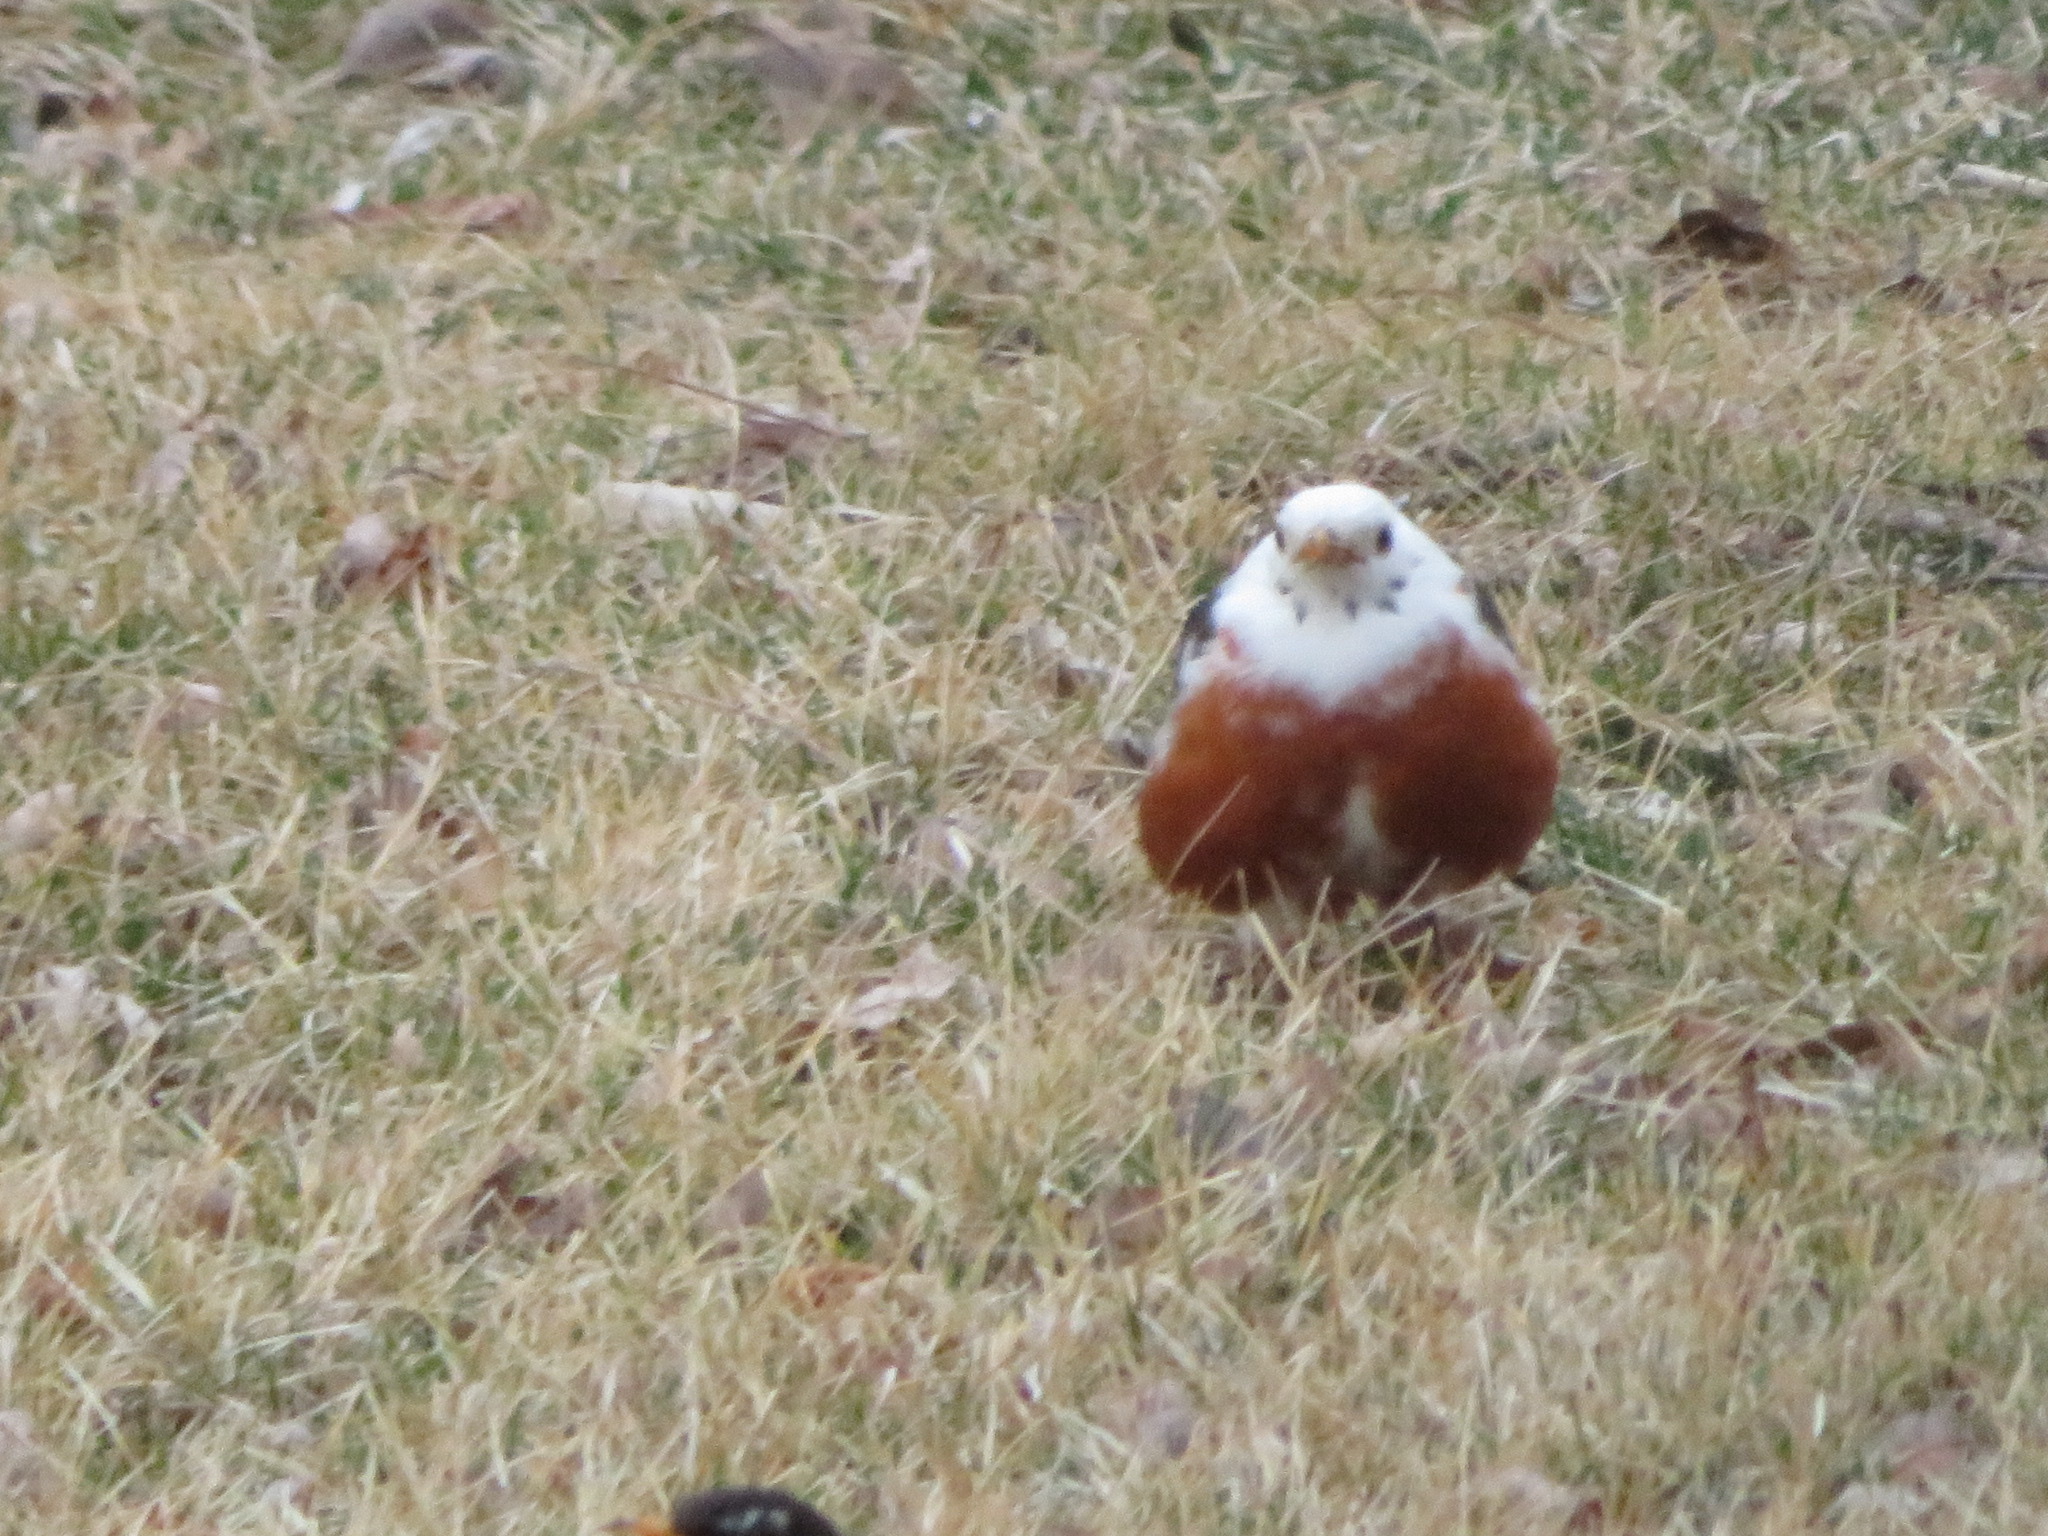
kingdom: Animalia
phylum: Chordata
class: Aves
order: Passeriformes
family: Turdidae
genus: Turdus
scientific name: Turdus migratorius
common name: American robin
